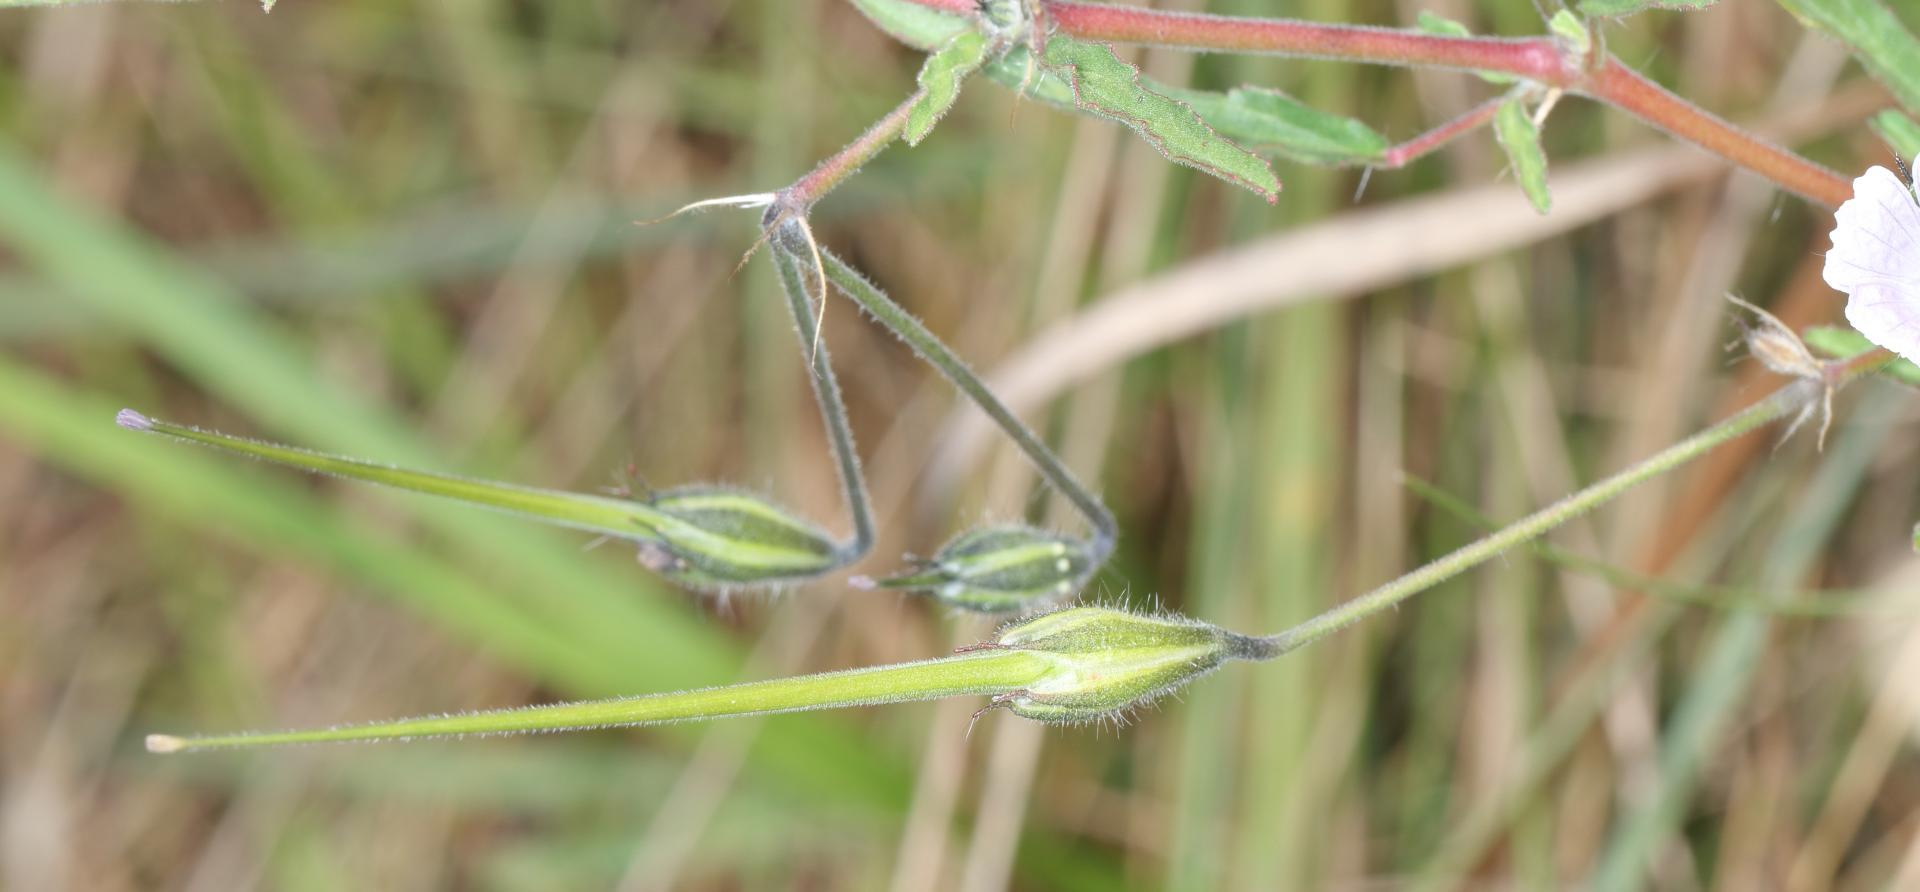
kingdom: Plantae
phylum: Tracheophyta
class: Magnoliopsida
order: Geraniales
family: Geraniaceae
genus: Monsonia
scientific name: Monsonia angustifolia
